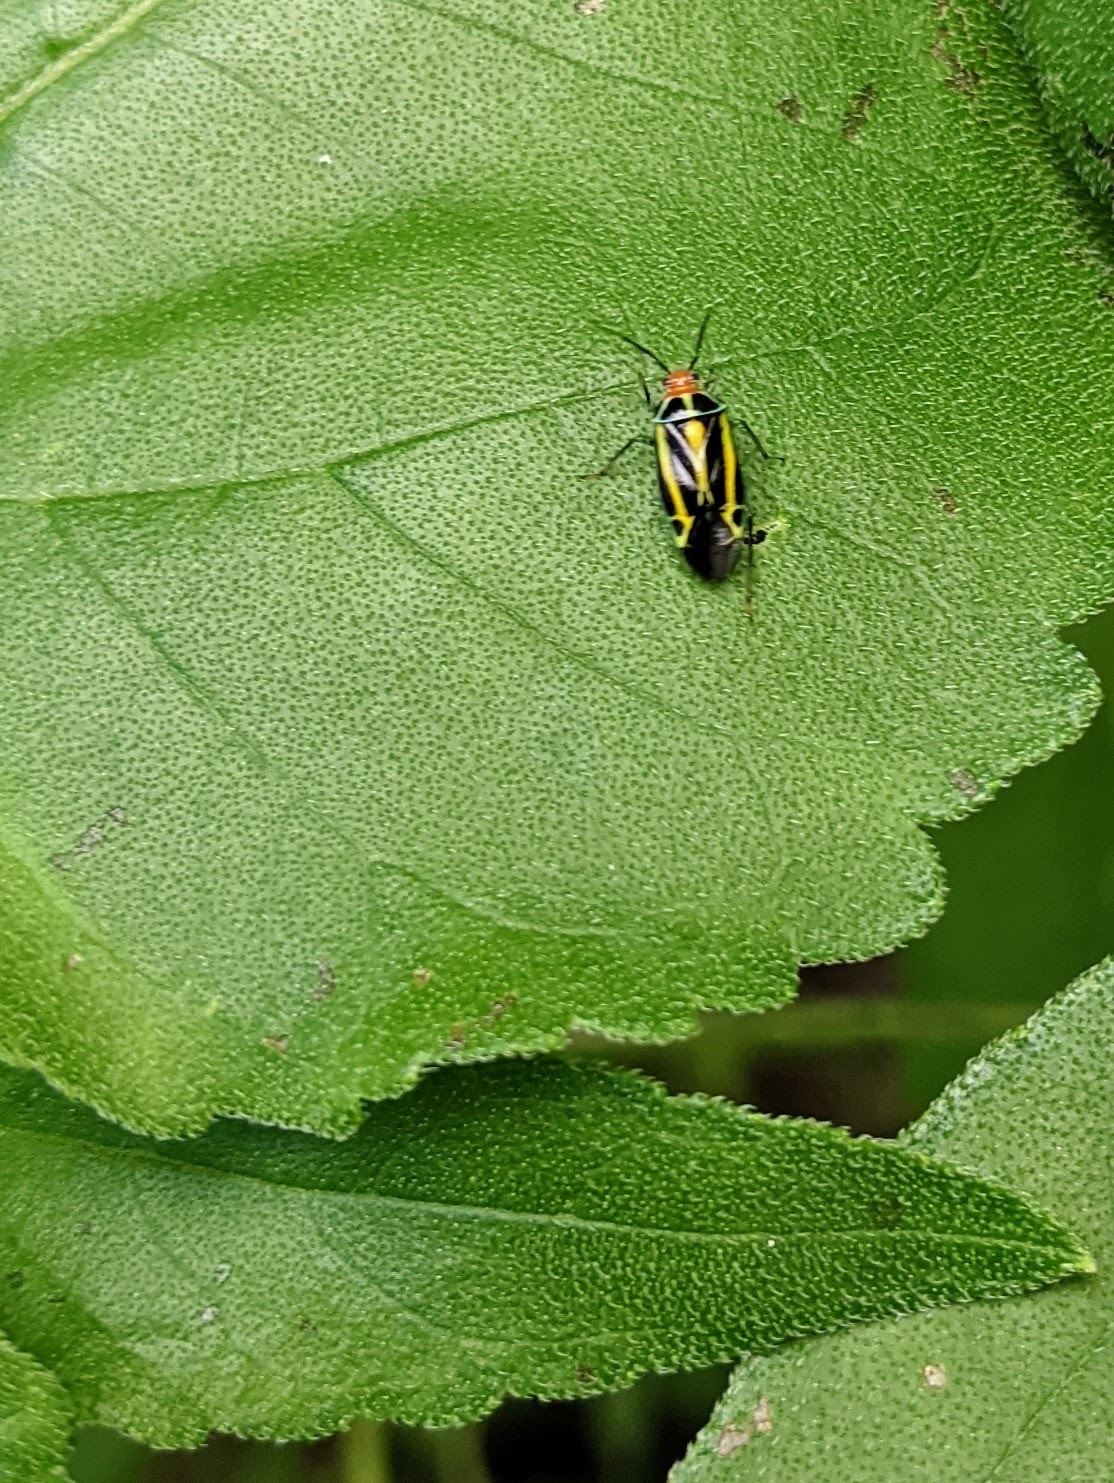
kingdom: Animalia
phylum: Arthropoda
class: Insecta
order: Hemiptera
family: Miridae
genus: Poecilocapsus
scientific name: Poecilocapsus lineatus
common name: Four-lined plant bug
